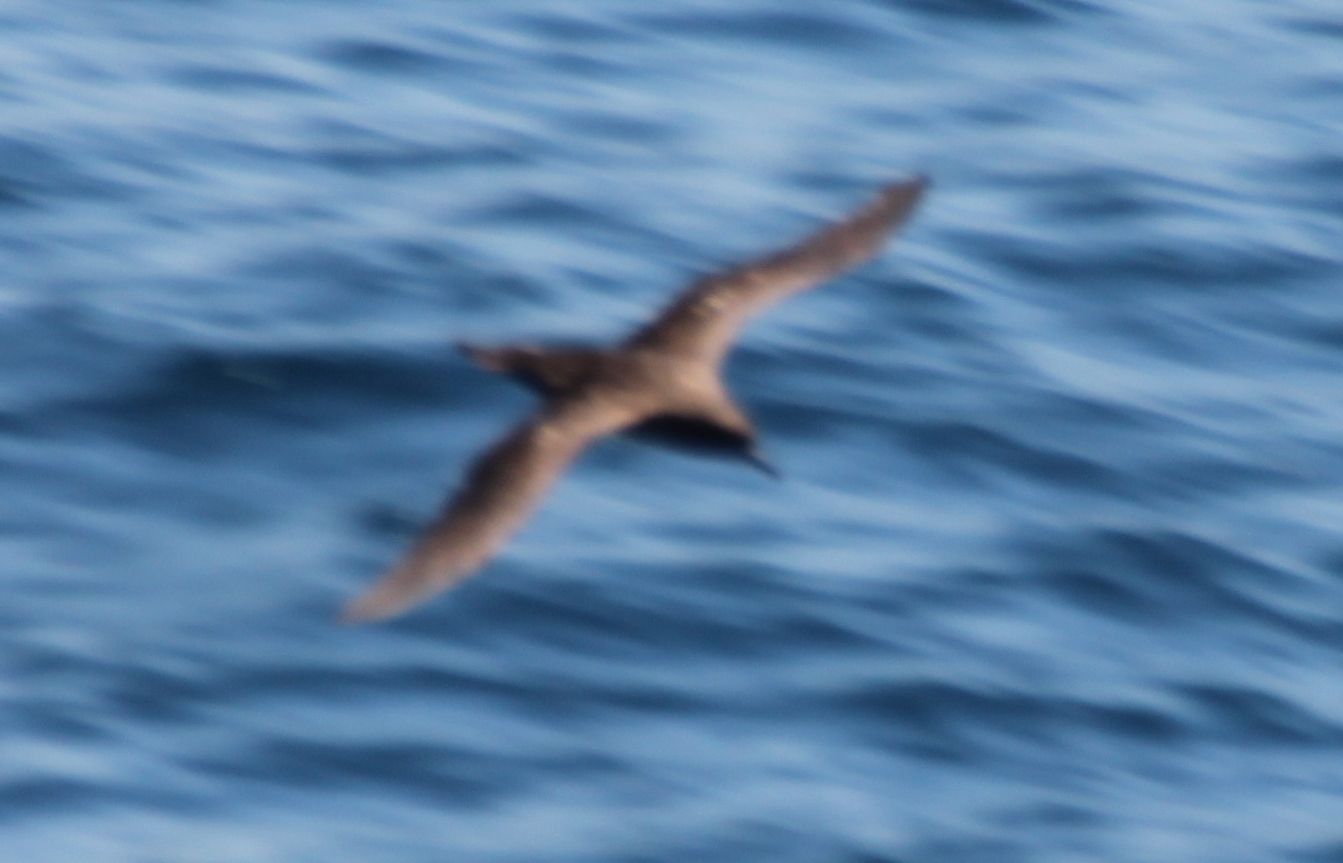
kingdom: Animalia
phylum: Chordata
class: Aves
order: Procellariiformes
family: Procellariidae
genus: Puffinus
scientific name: Puffinus griseus
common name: Sooty shearwater
